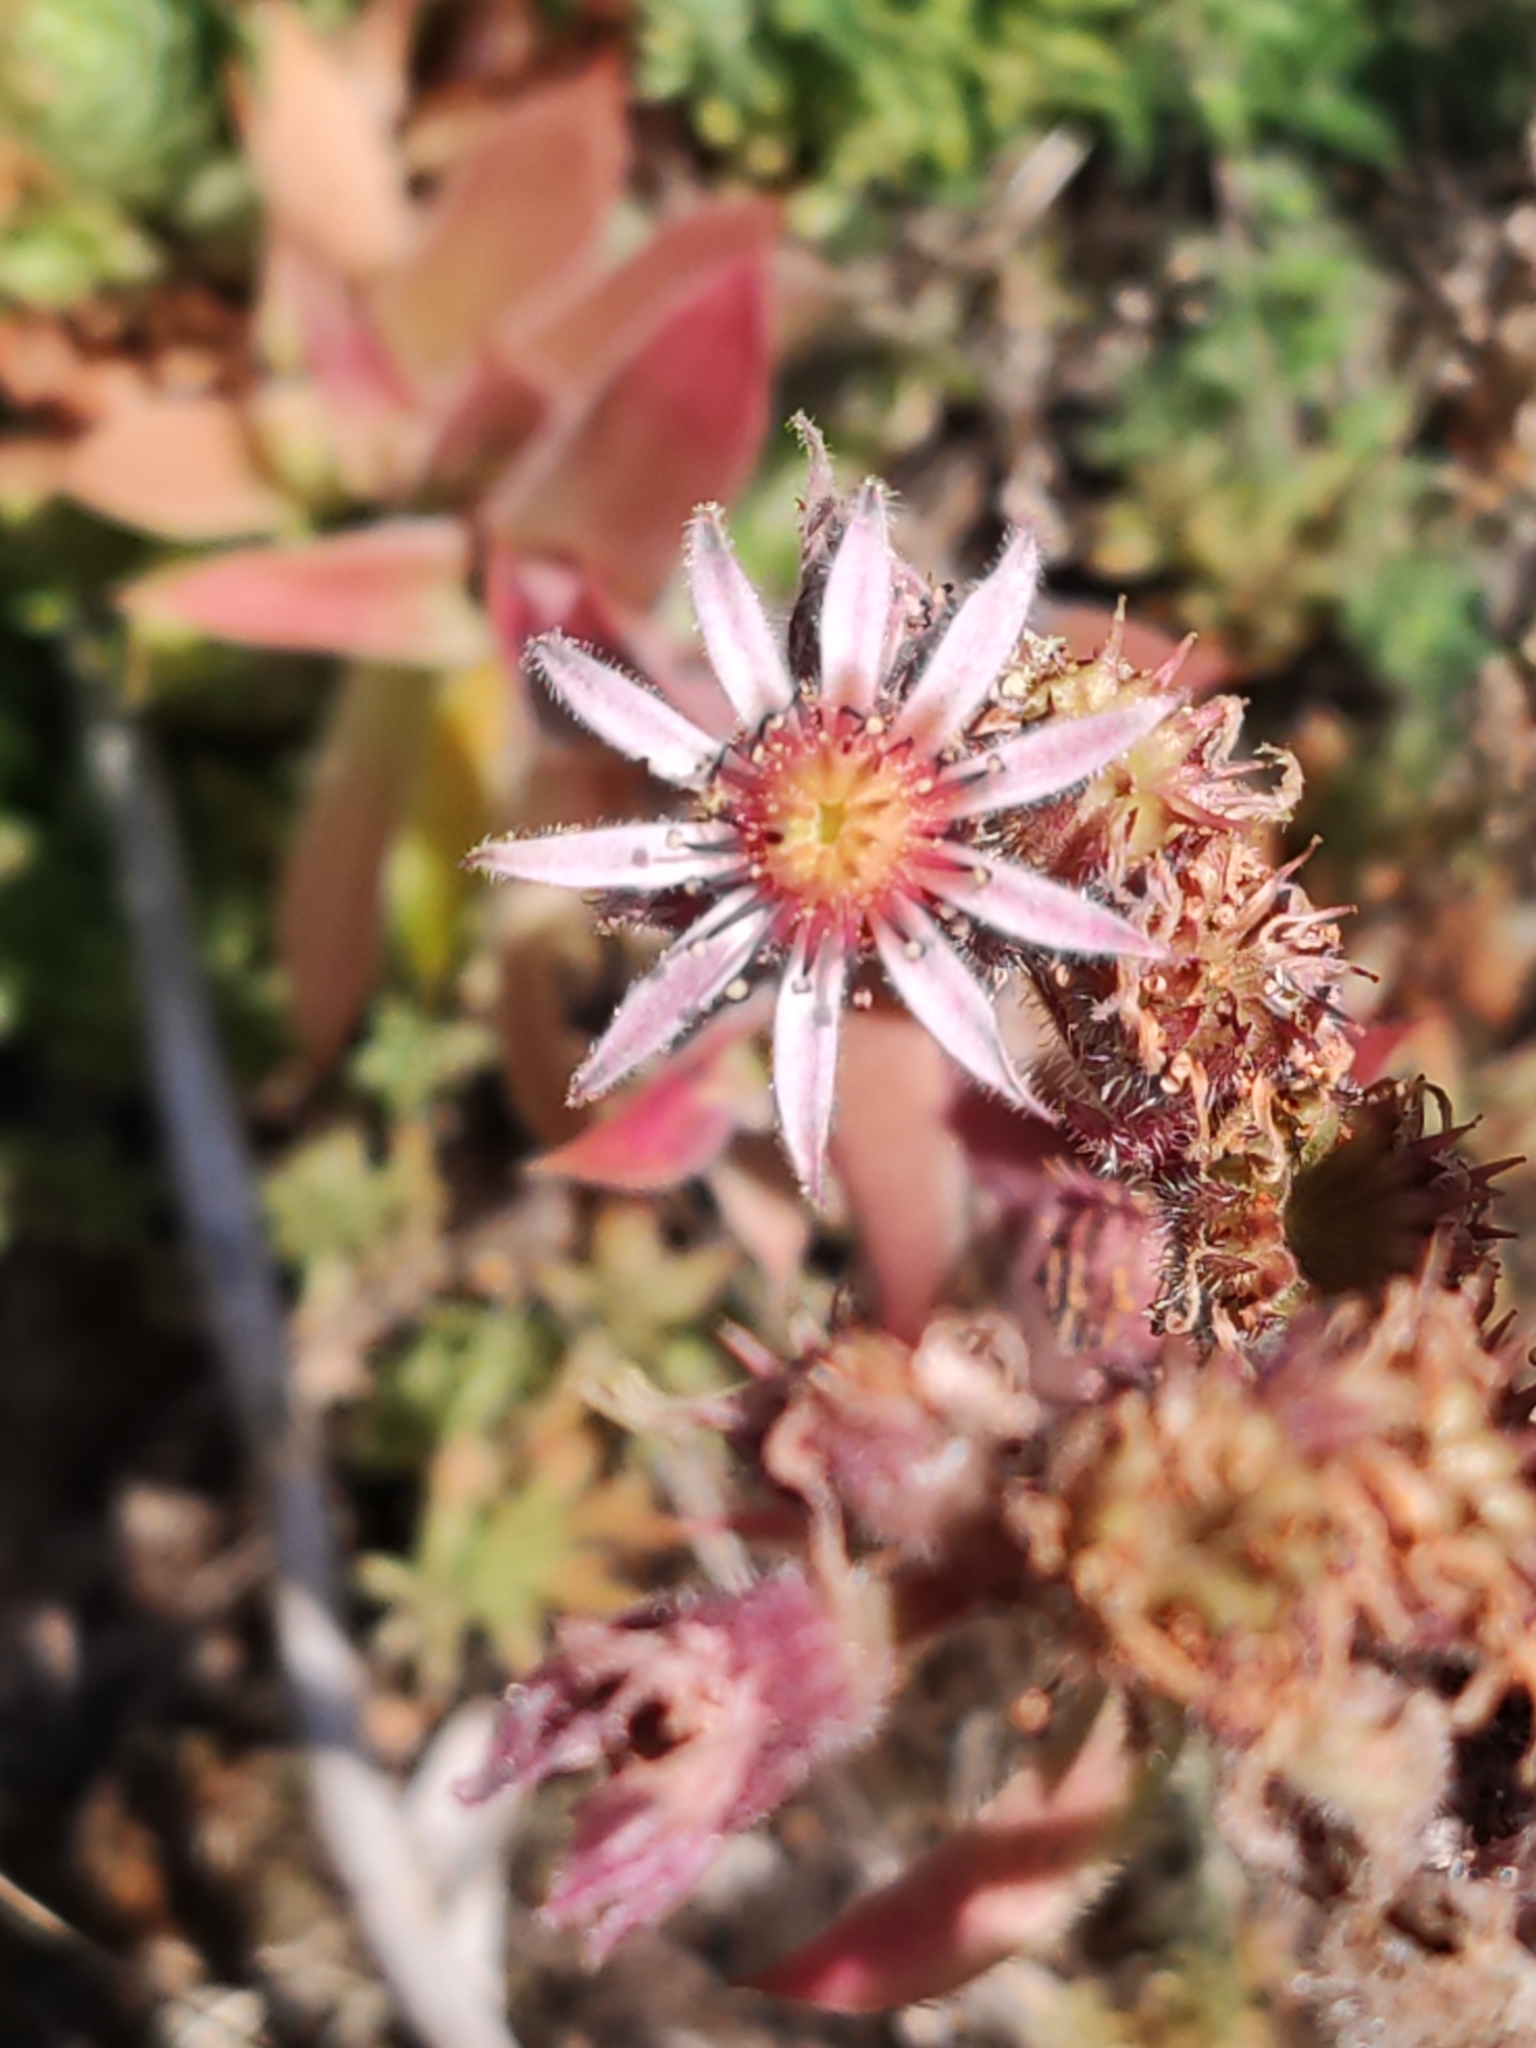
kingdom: Plantae
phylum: Tracheophyta
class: Magnoliopsida
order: Saxifragales
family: Crassulaceae
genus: Sempervivum
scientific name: Sempervivum tectorum
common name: House-leek
